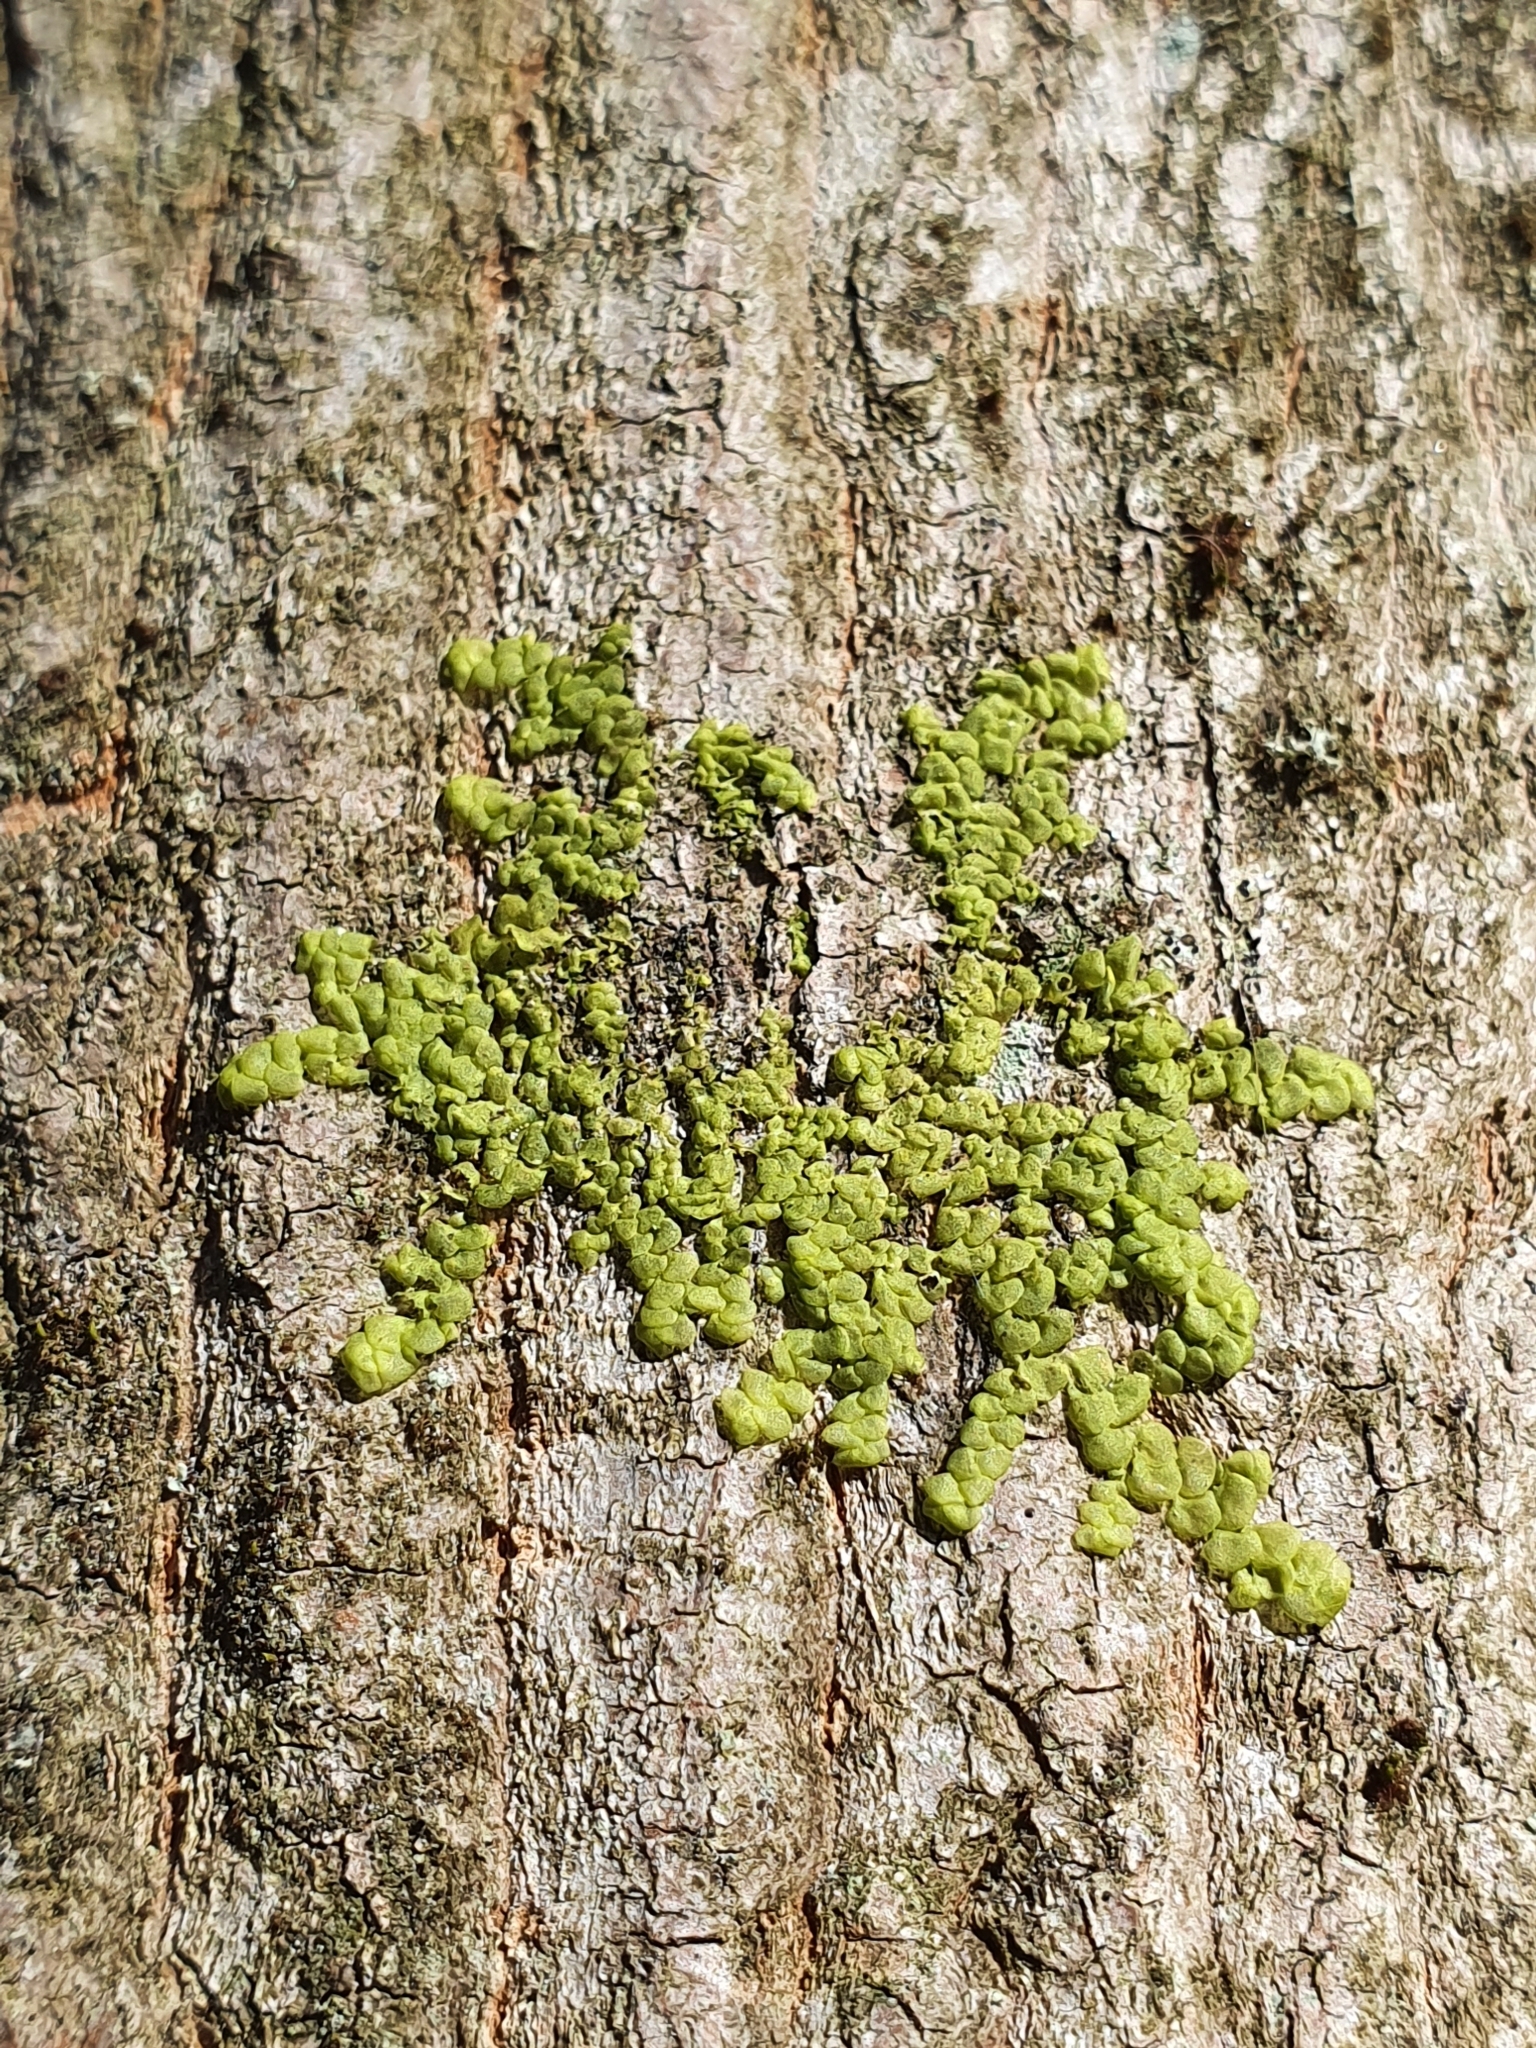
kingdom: Plantae
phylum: Marchantiophyta
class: Jungermanniopsida
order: Porellales
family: Radulaceae
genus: Radula
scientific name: Radula complanata
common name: Flat-leaved scalewort
